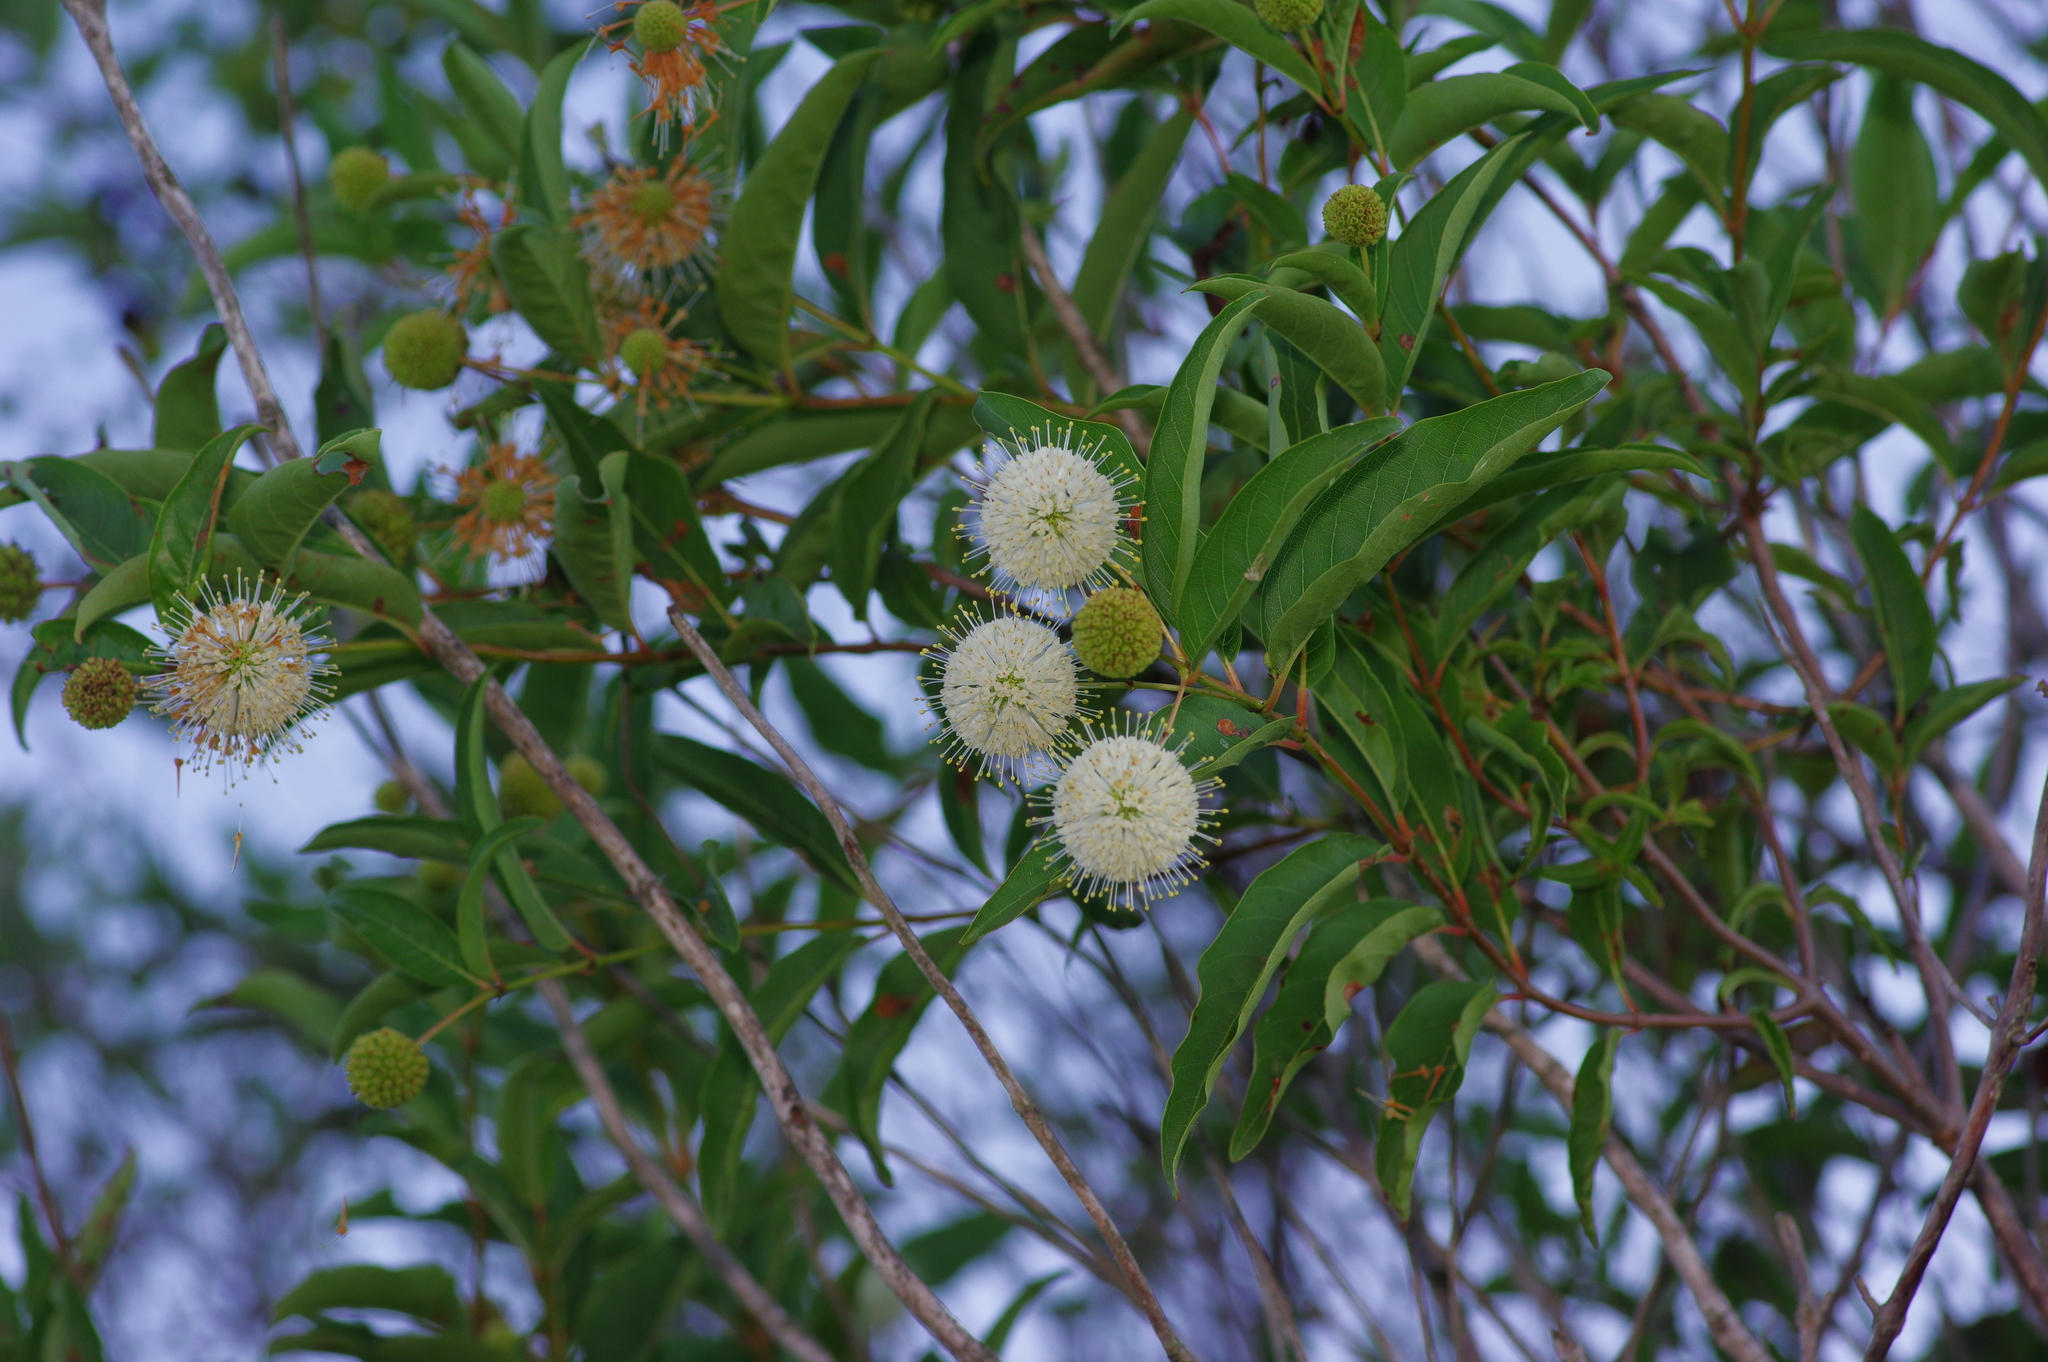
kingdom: Plantae
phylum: Tracheophyta
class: Magnoliopsida
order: Gentianales
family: Rubiaceae
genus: Cephalanthus
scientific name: Cephalanthus occidentalis
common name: Button-willow
